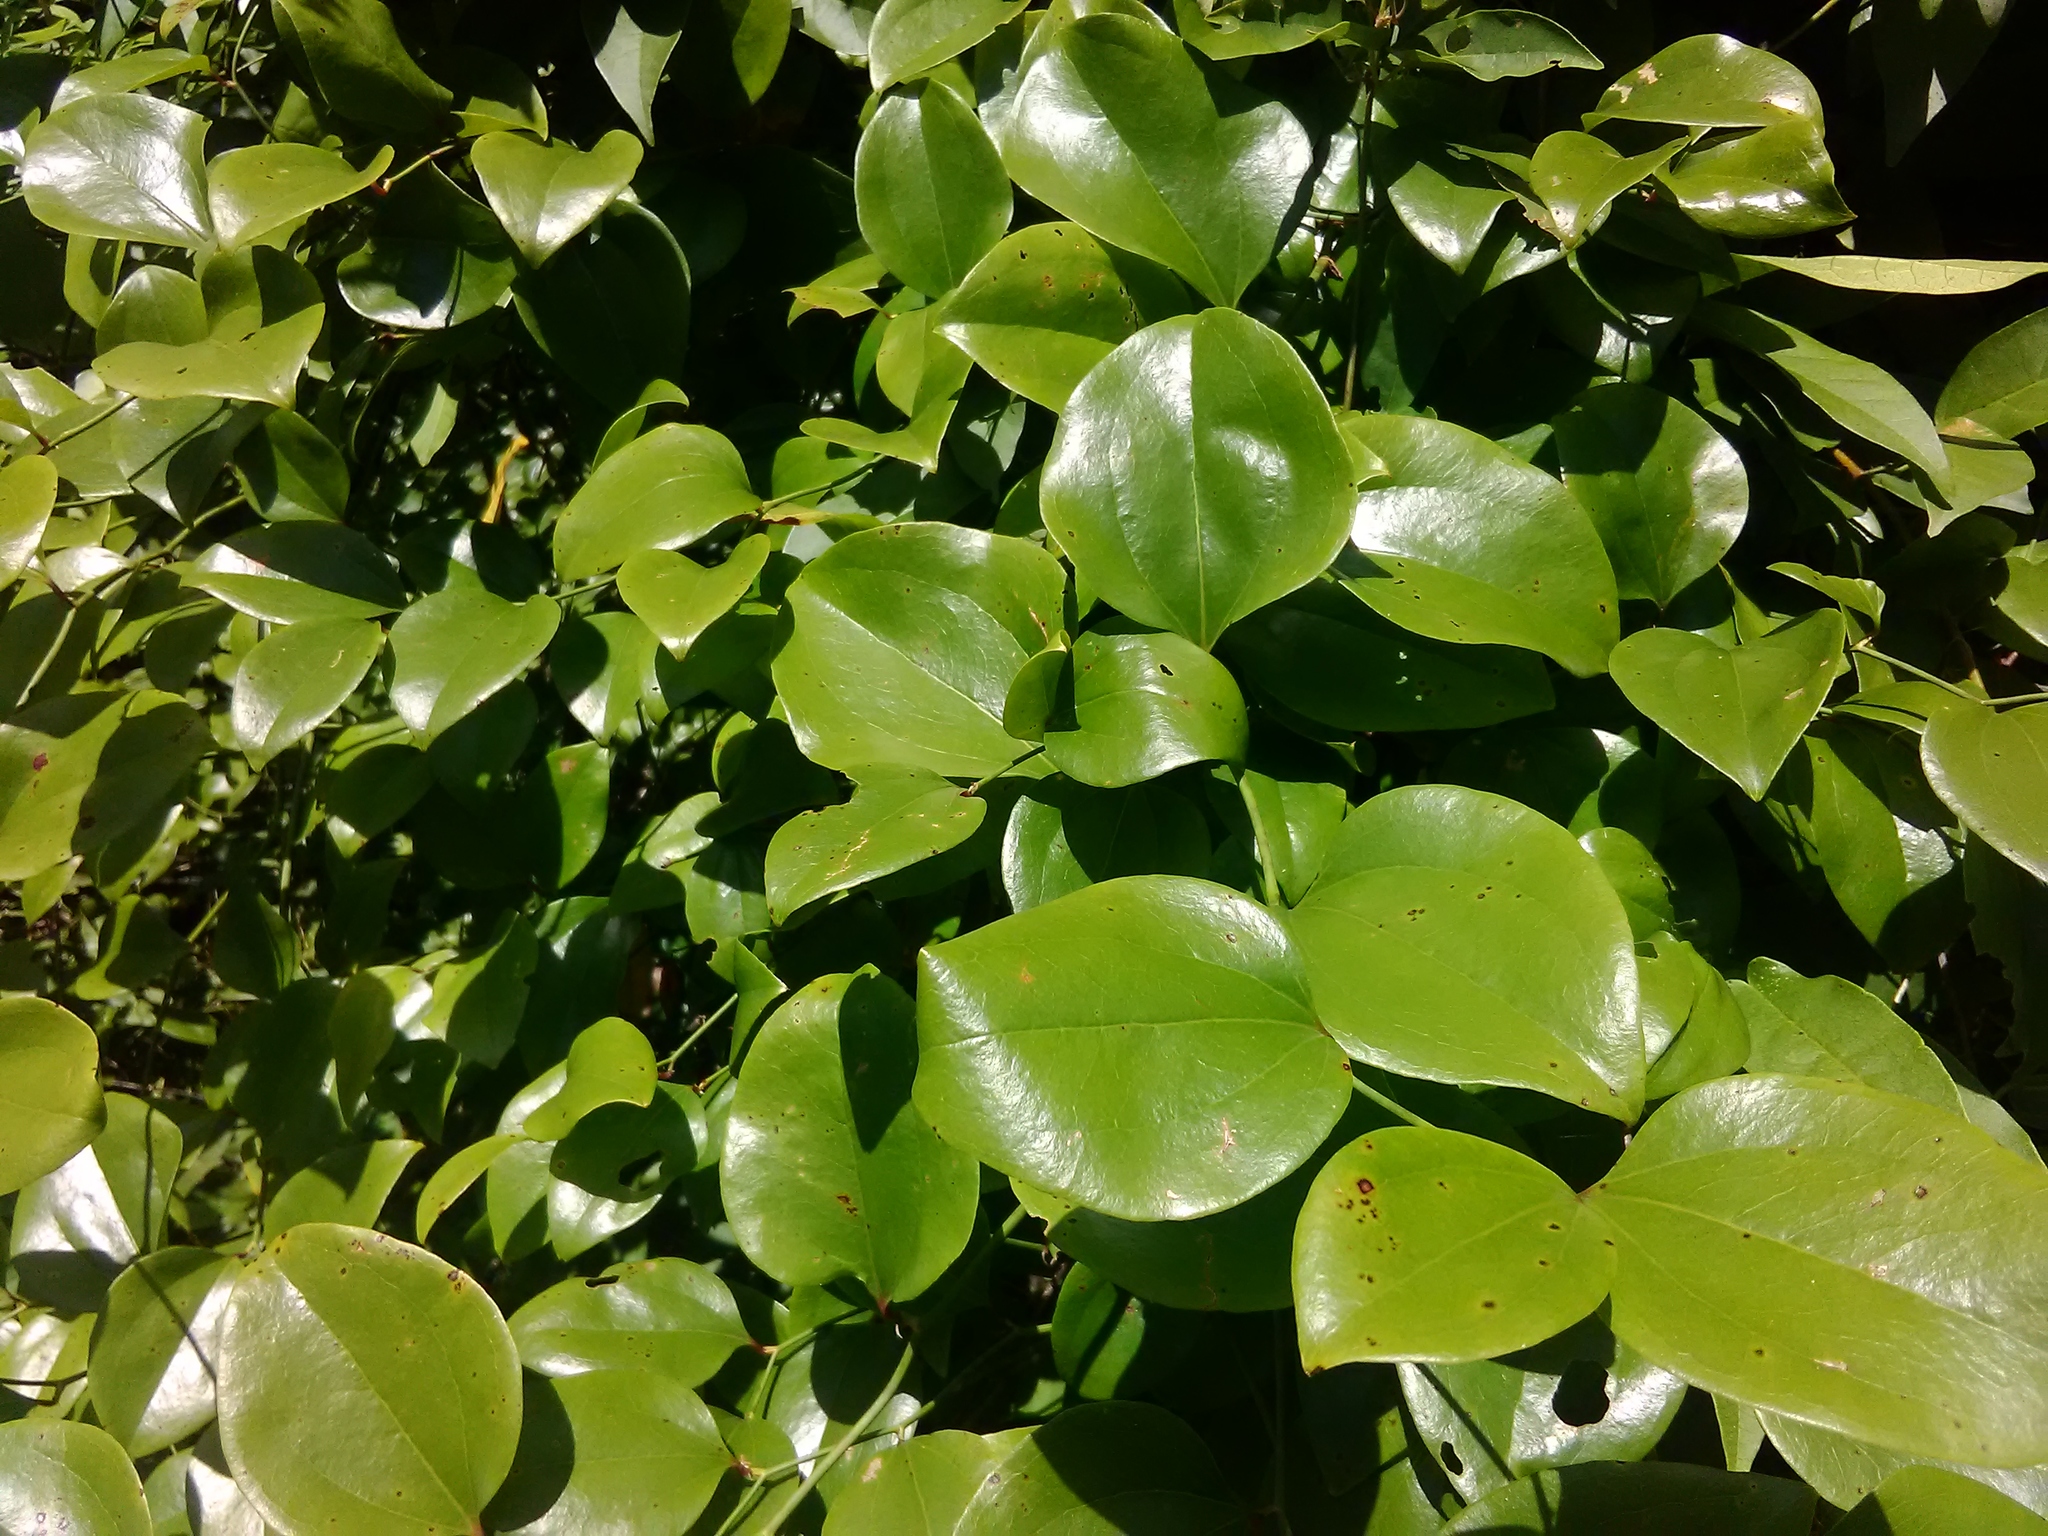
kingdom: Plantae
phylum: Tracheophyta
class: Liliopsida
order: Liliales
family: Smilacaceae
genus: Smilax
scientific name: Smilax rotundifolia
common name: Bullbriar
